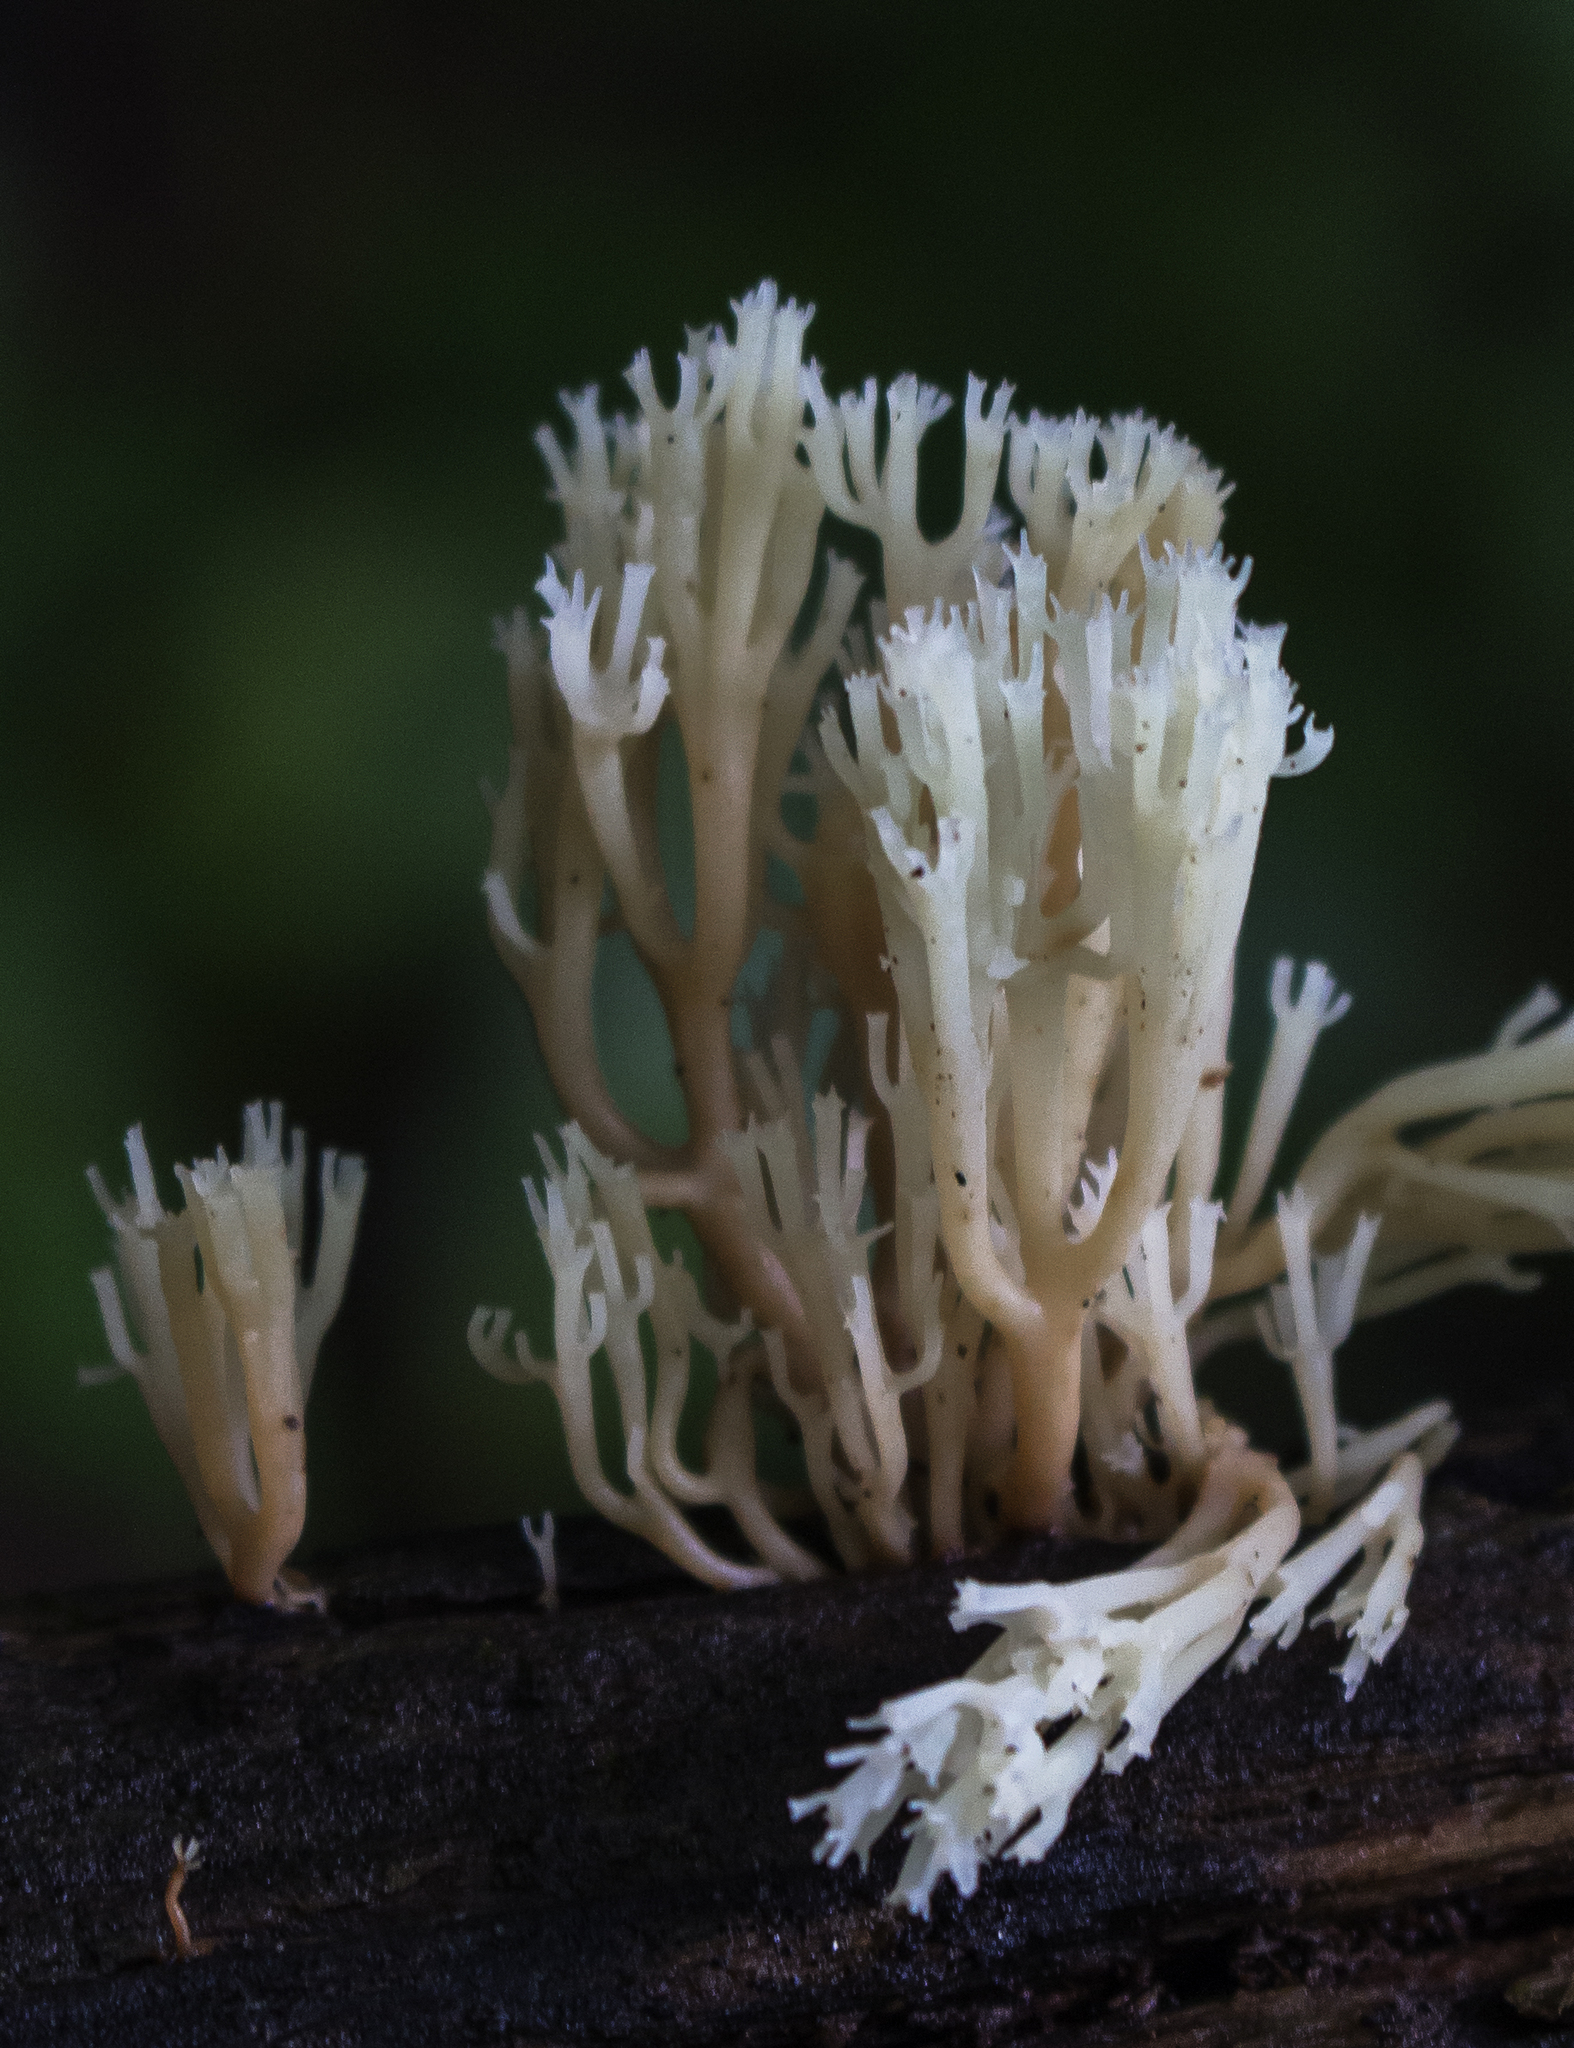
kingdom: Fungi
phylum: Basidiomycota
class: Agaricomycetes
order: Russulales
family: Auriscalpiaceae
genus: Artomyces
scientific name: Artomyces pyxidatus
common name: Crown-tipped coral fungus
